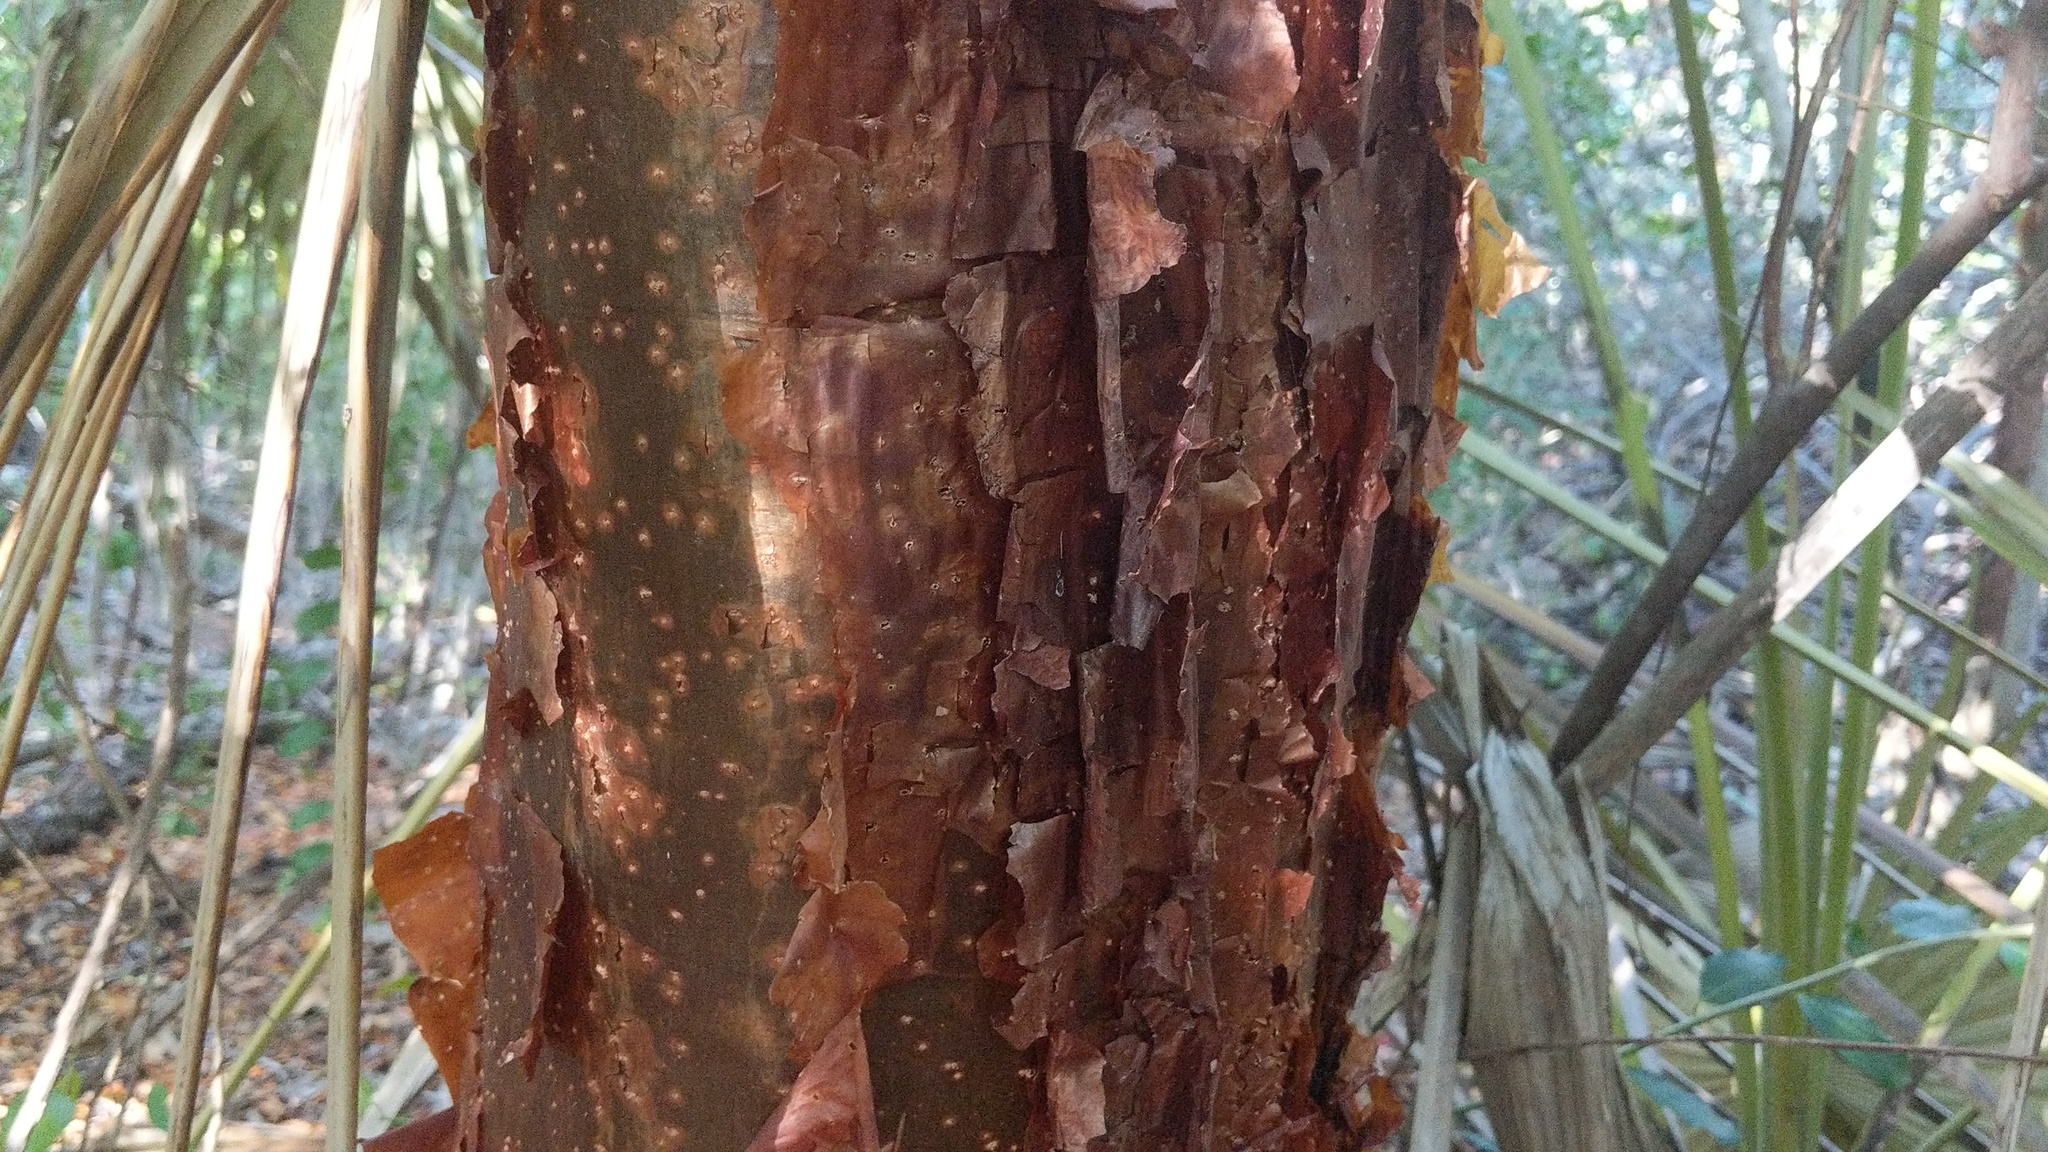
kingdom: Plantae
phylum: Tracheophyta
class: Magnoliopsida
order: Sapindales
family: Burseraceae
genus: Bursera
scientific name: Bursera simaruba
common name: Turpentine tree
